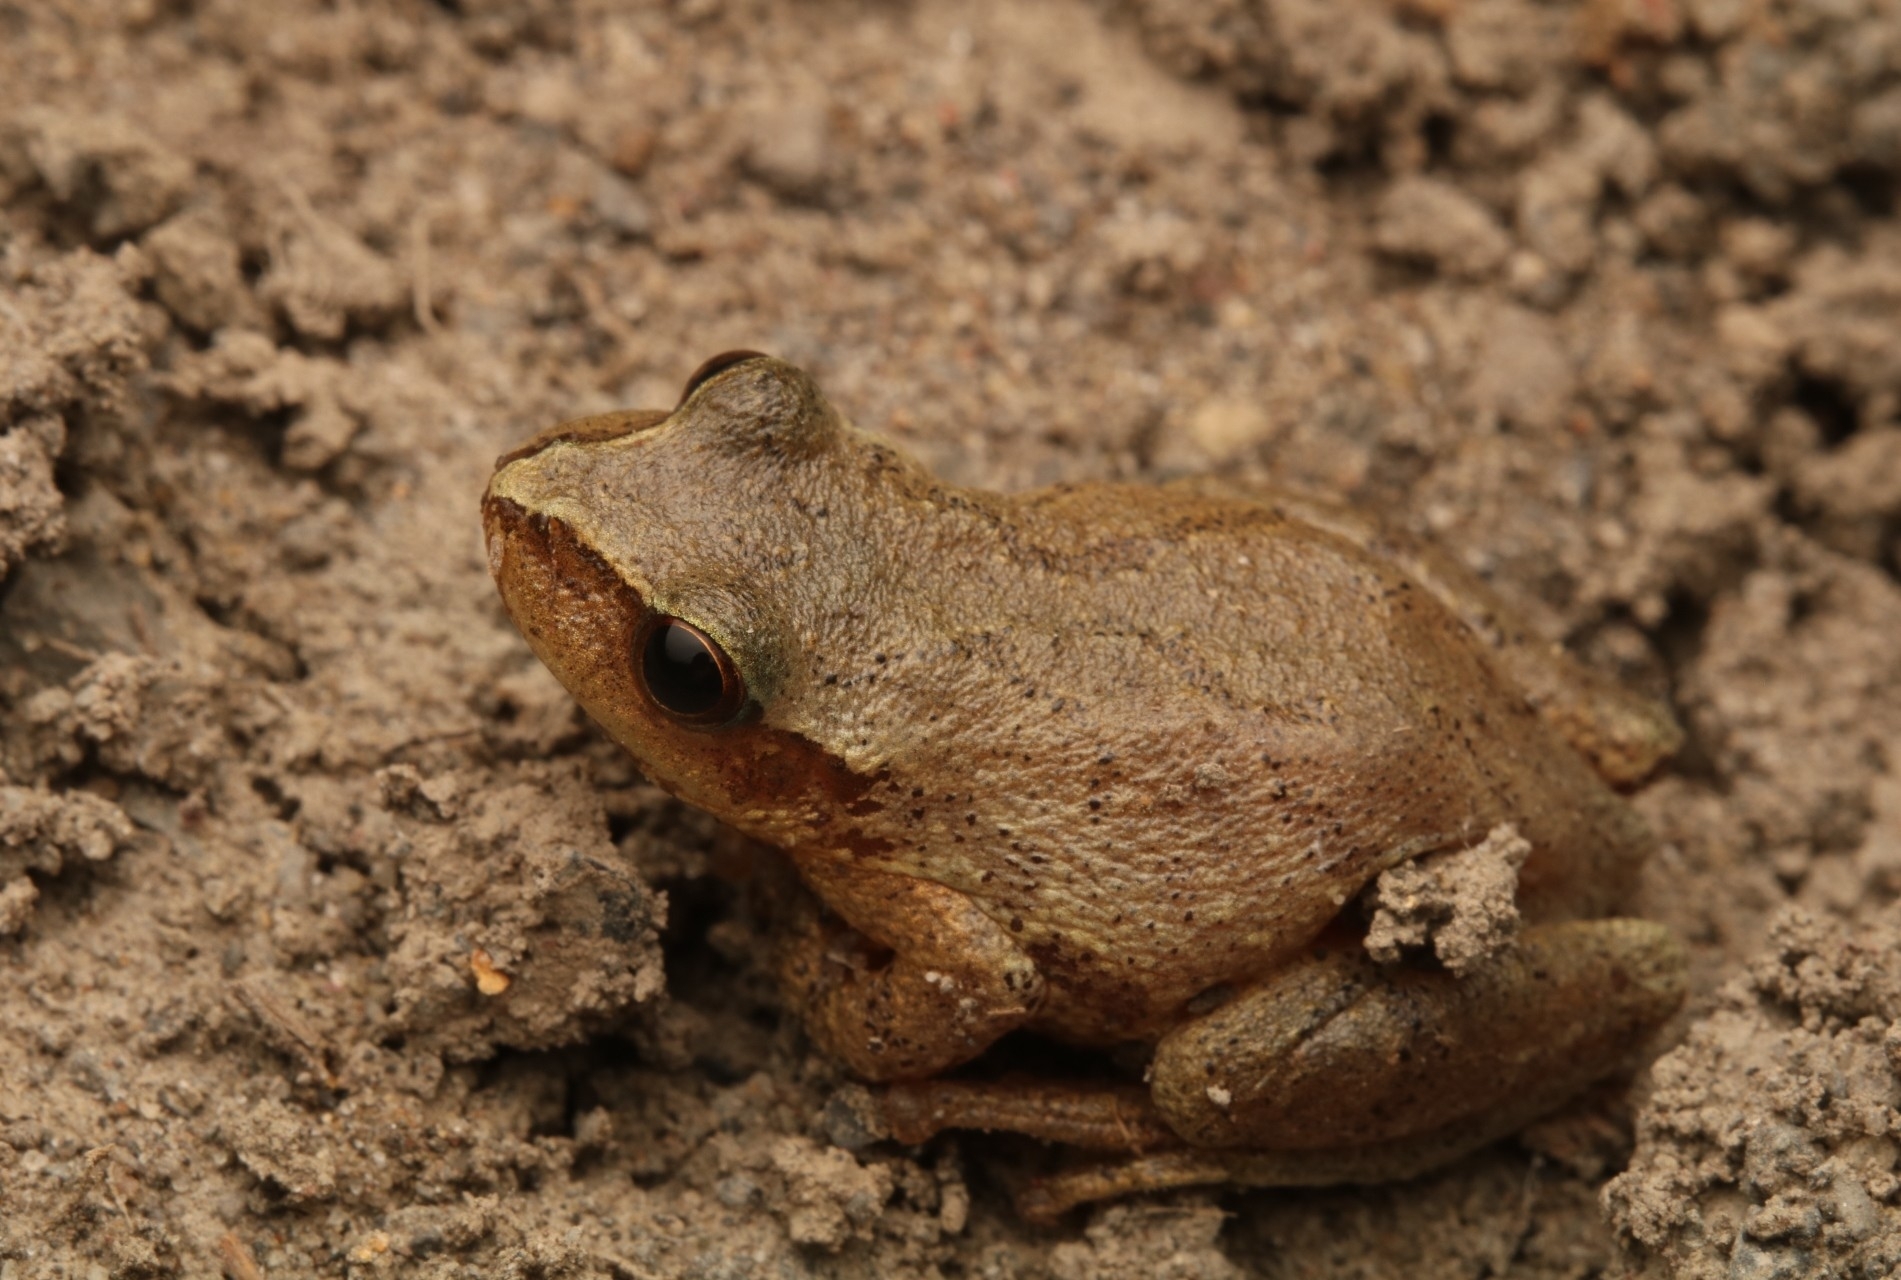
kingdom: Animalia
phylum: Chordata
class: Amphibia
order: Anura
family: Hylidae
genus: Pseudacris
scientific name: Pseudacris crucifer
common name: Spring peeper
